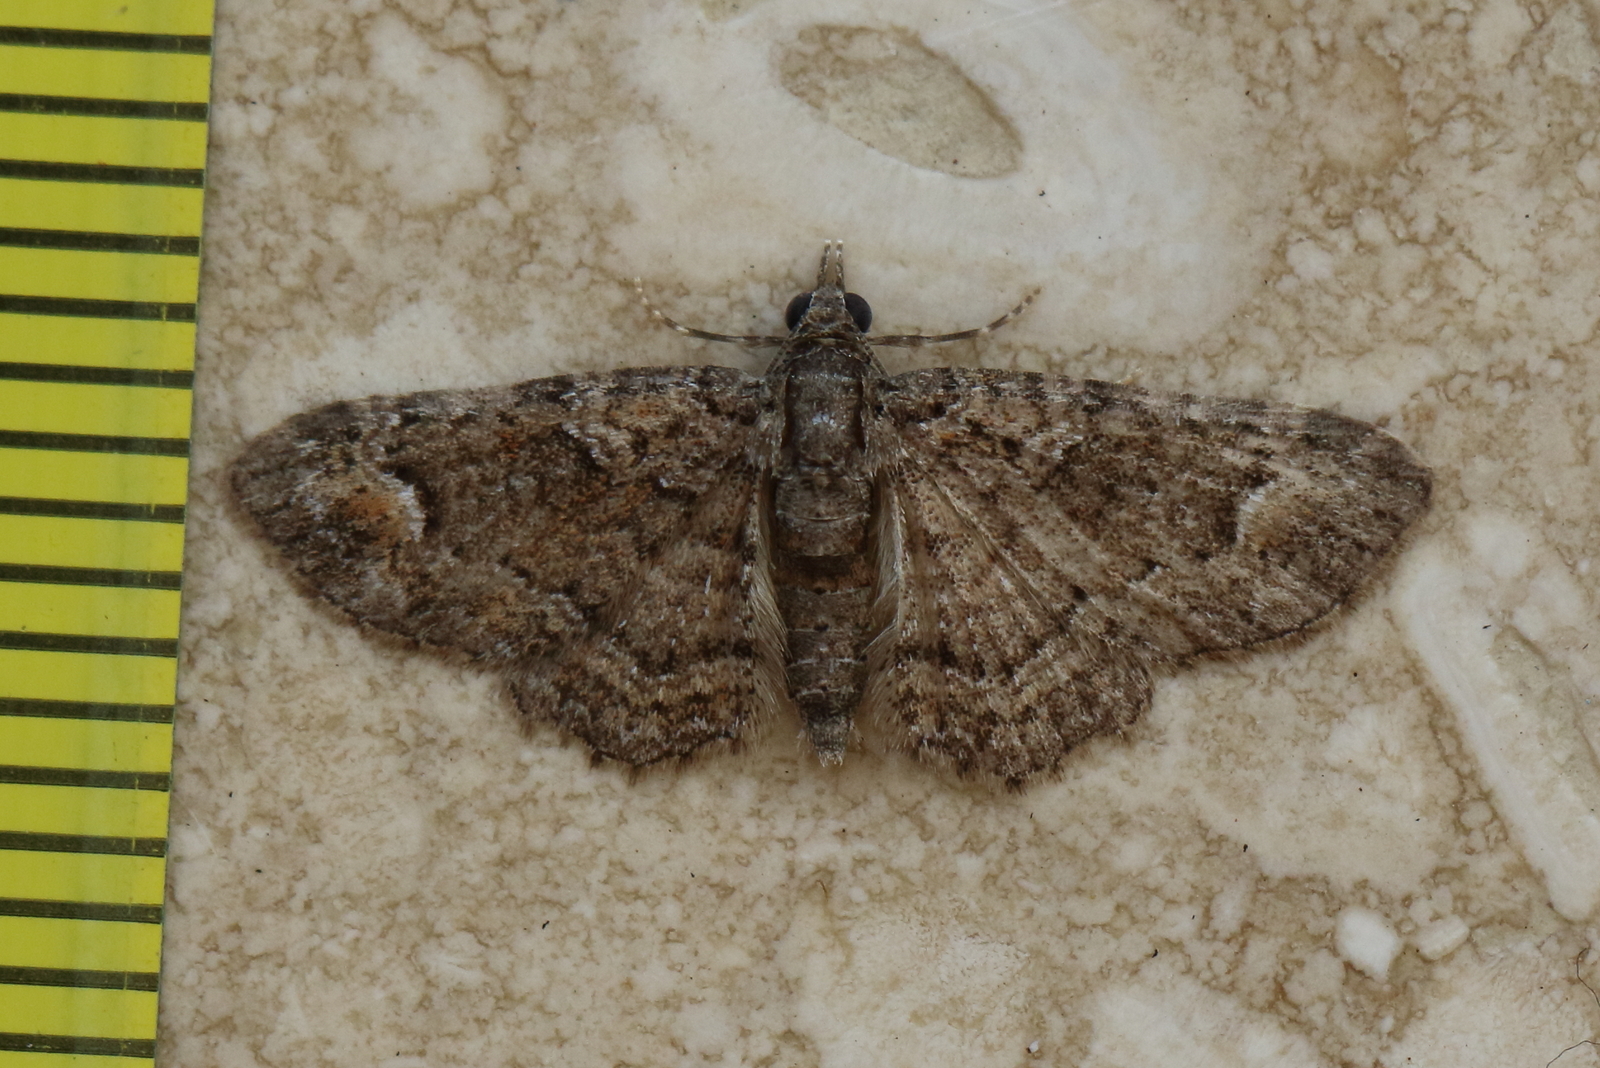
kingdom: Animalia
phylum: Arthropoda
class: Insecta
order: Lepidoptera
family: Geometridae
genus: Pasiphilodes
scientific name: Pasiphilodes testulata
